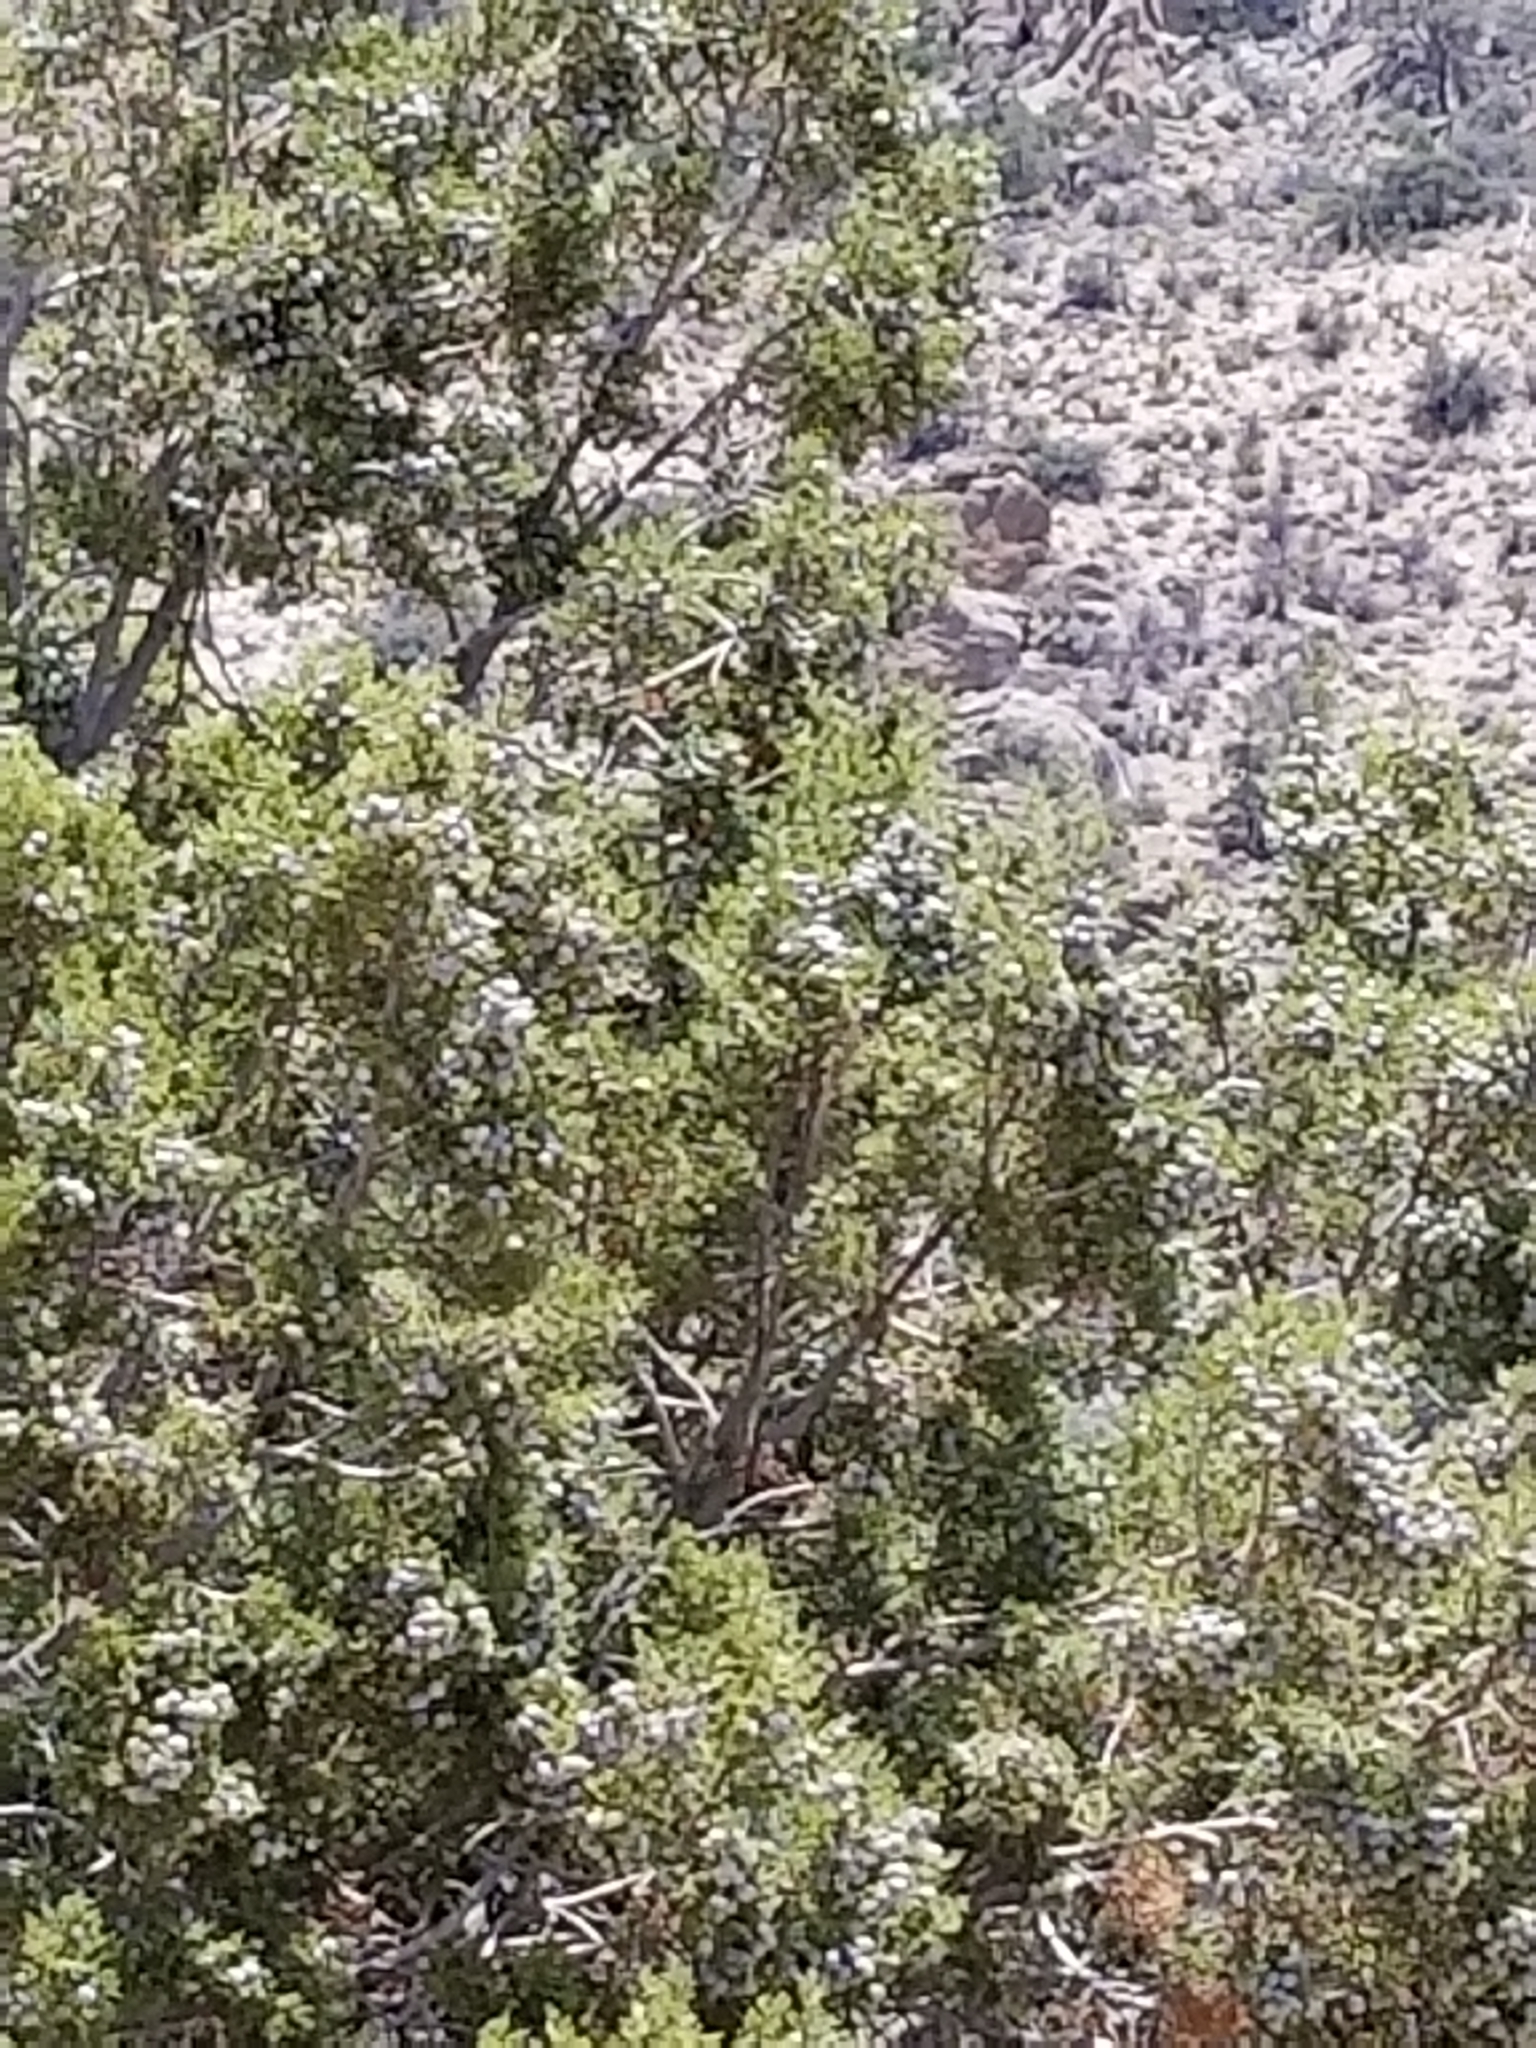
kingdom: Plantae
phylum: Tracheophyta
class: Pinopsida
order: Pinales
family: Cupressaceae
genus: Juniperus
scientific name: Juniperus californica
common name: California juniper
